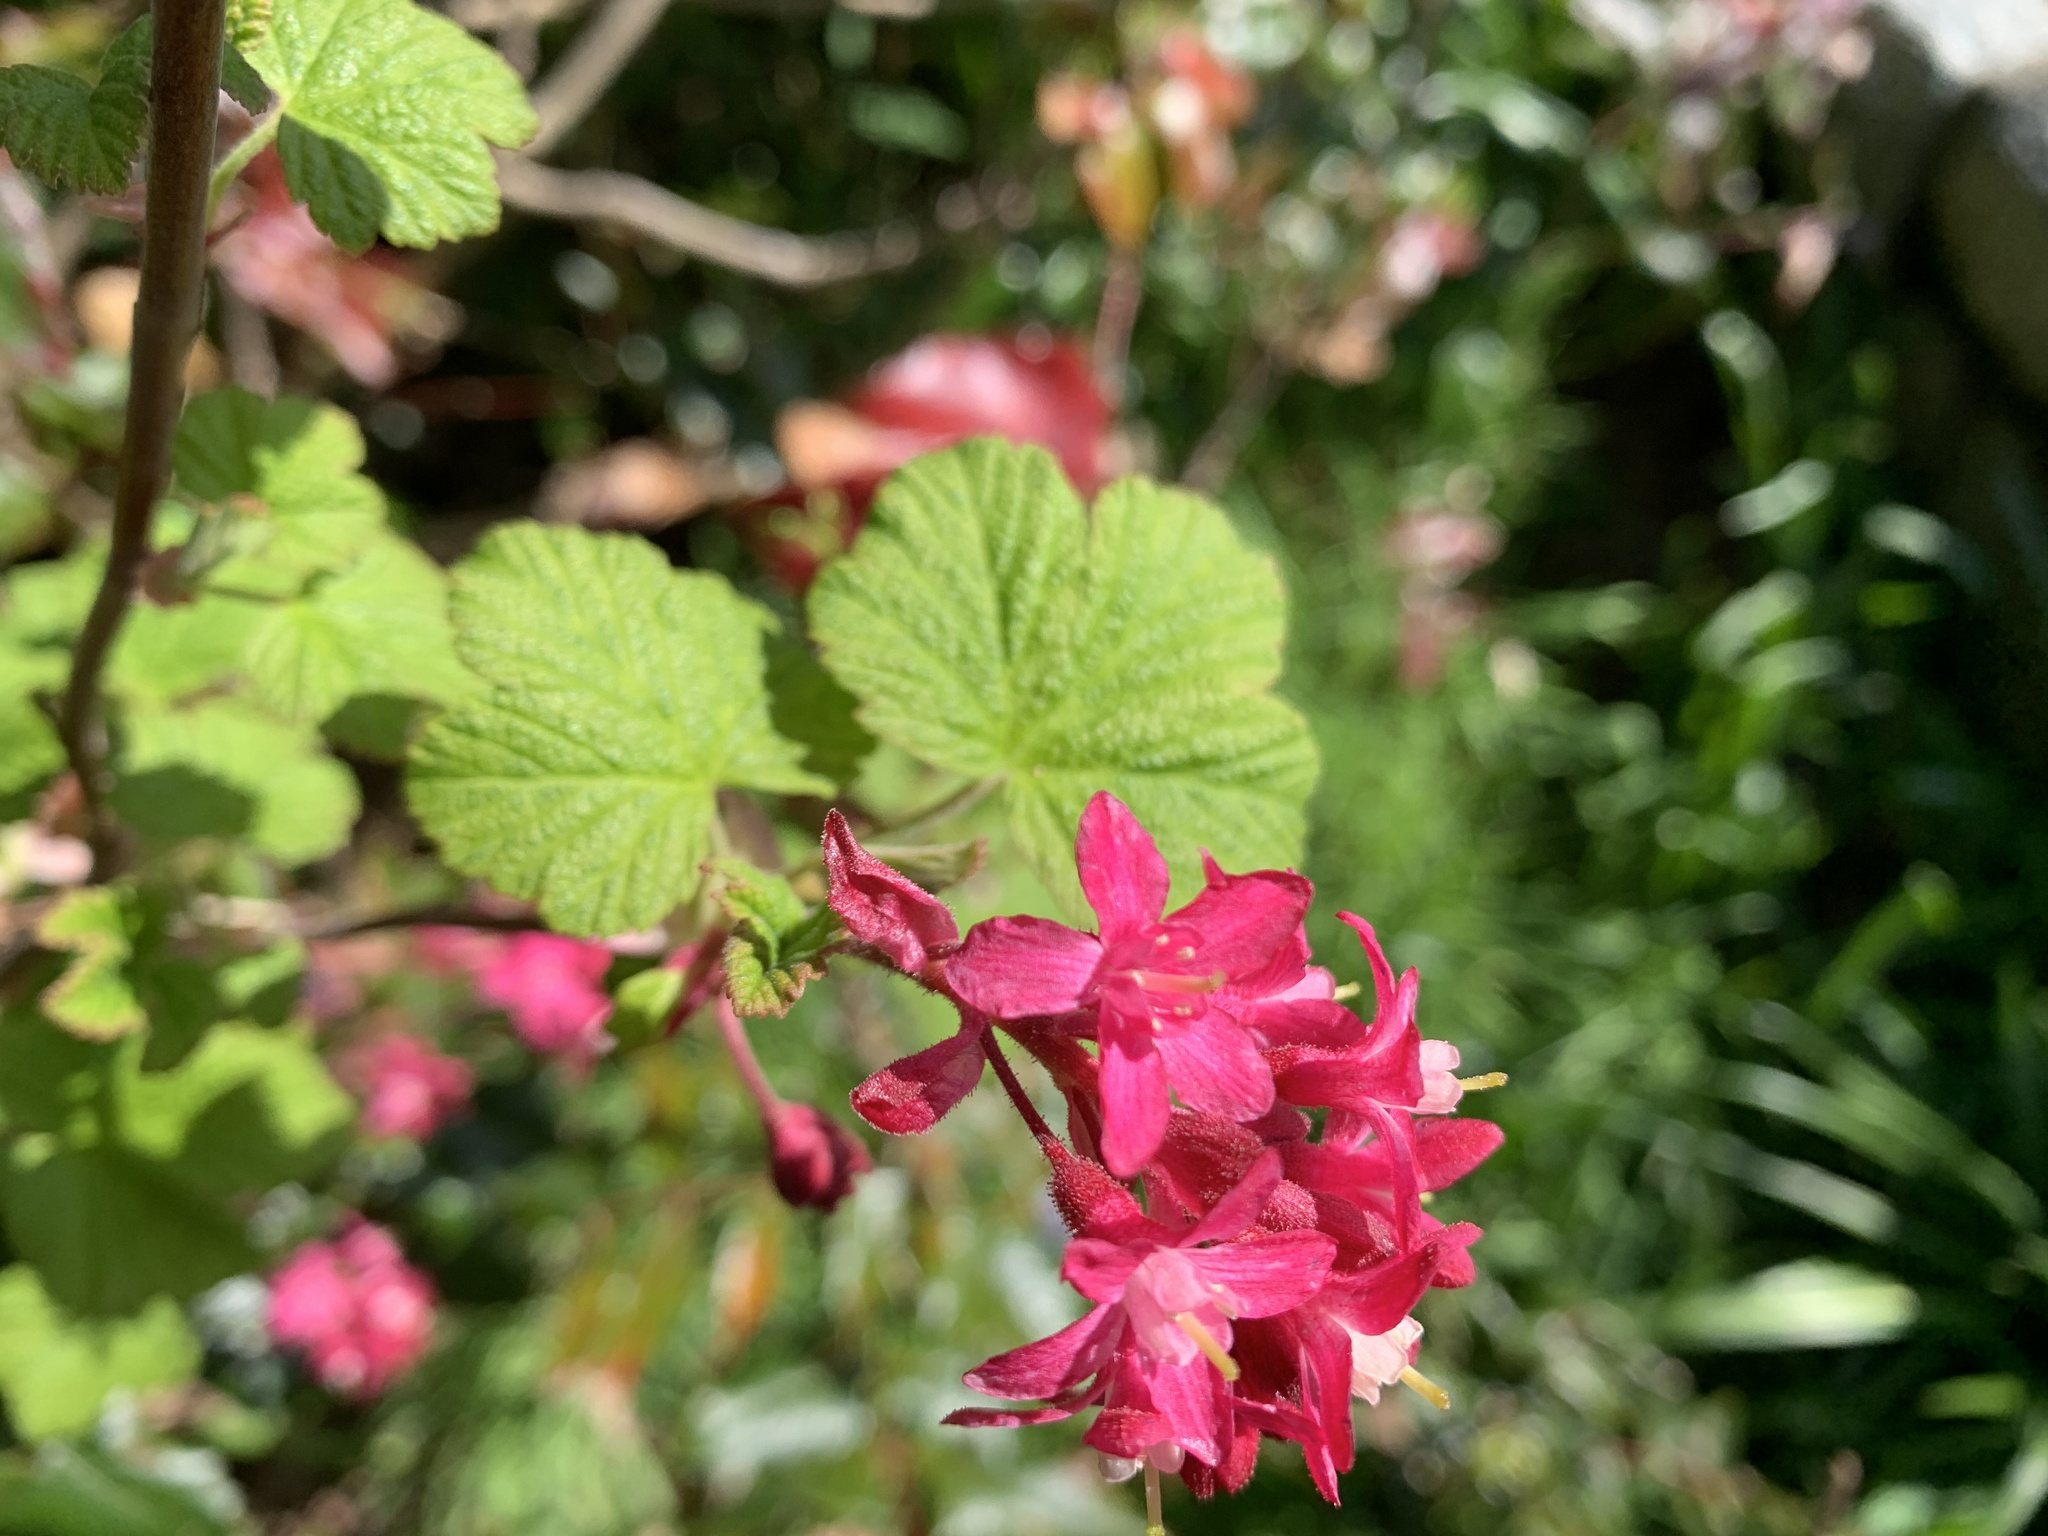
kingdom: Plantae
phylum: Tracheophyta
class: Magnoliopsida
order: Saxifragales
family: Grossulariaceae
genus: Ribes
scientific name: Ribes sanguineum
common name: Flowering currant
